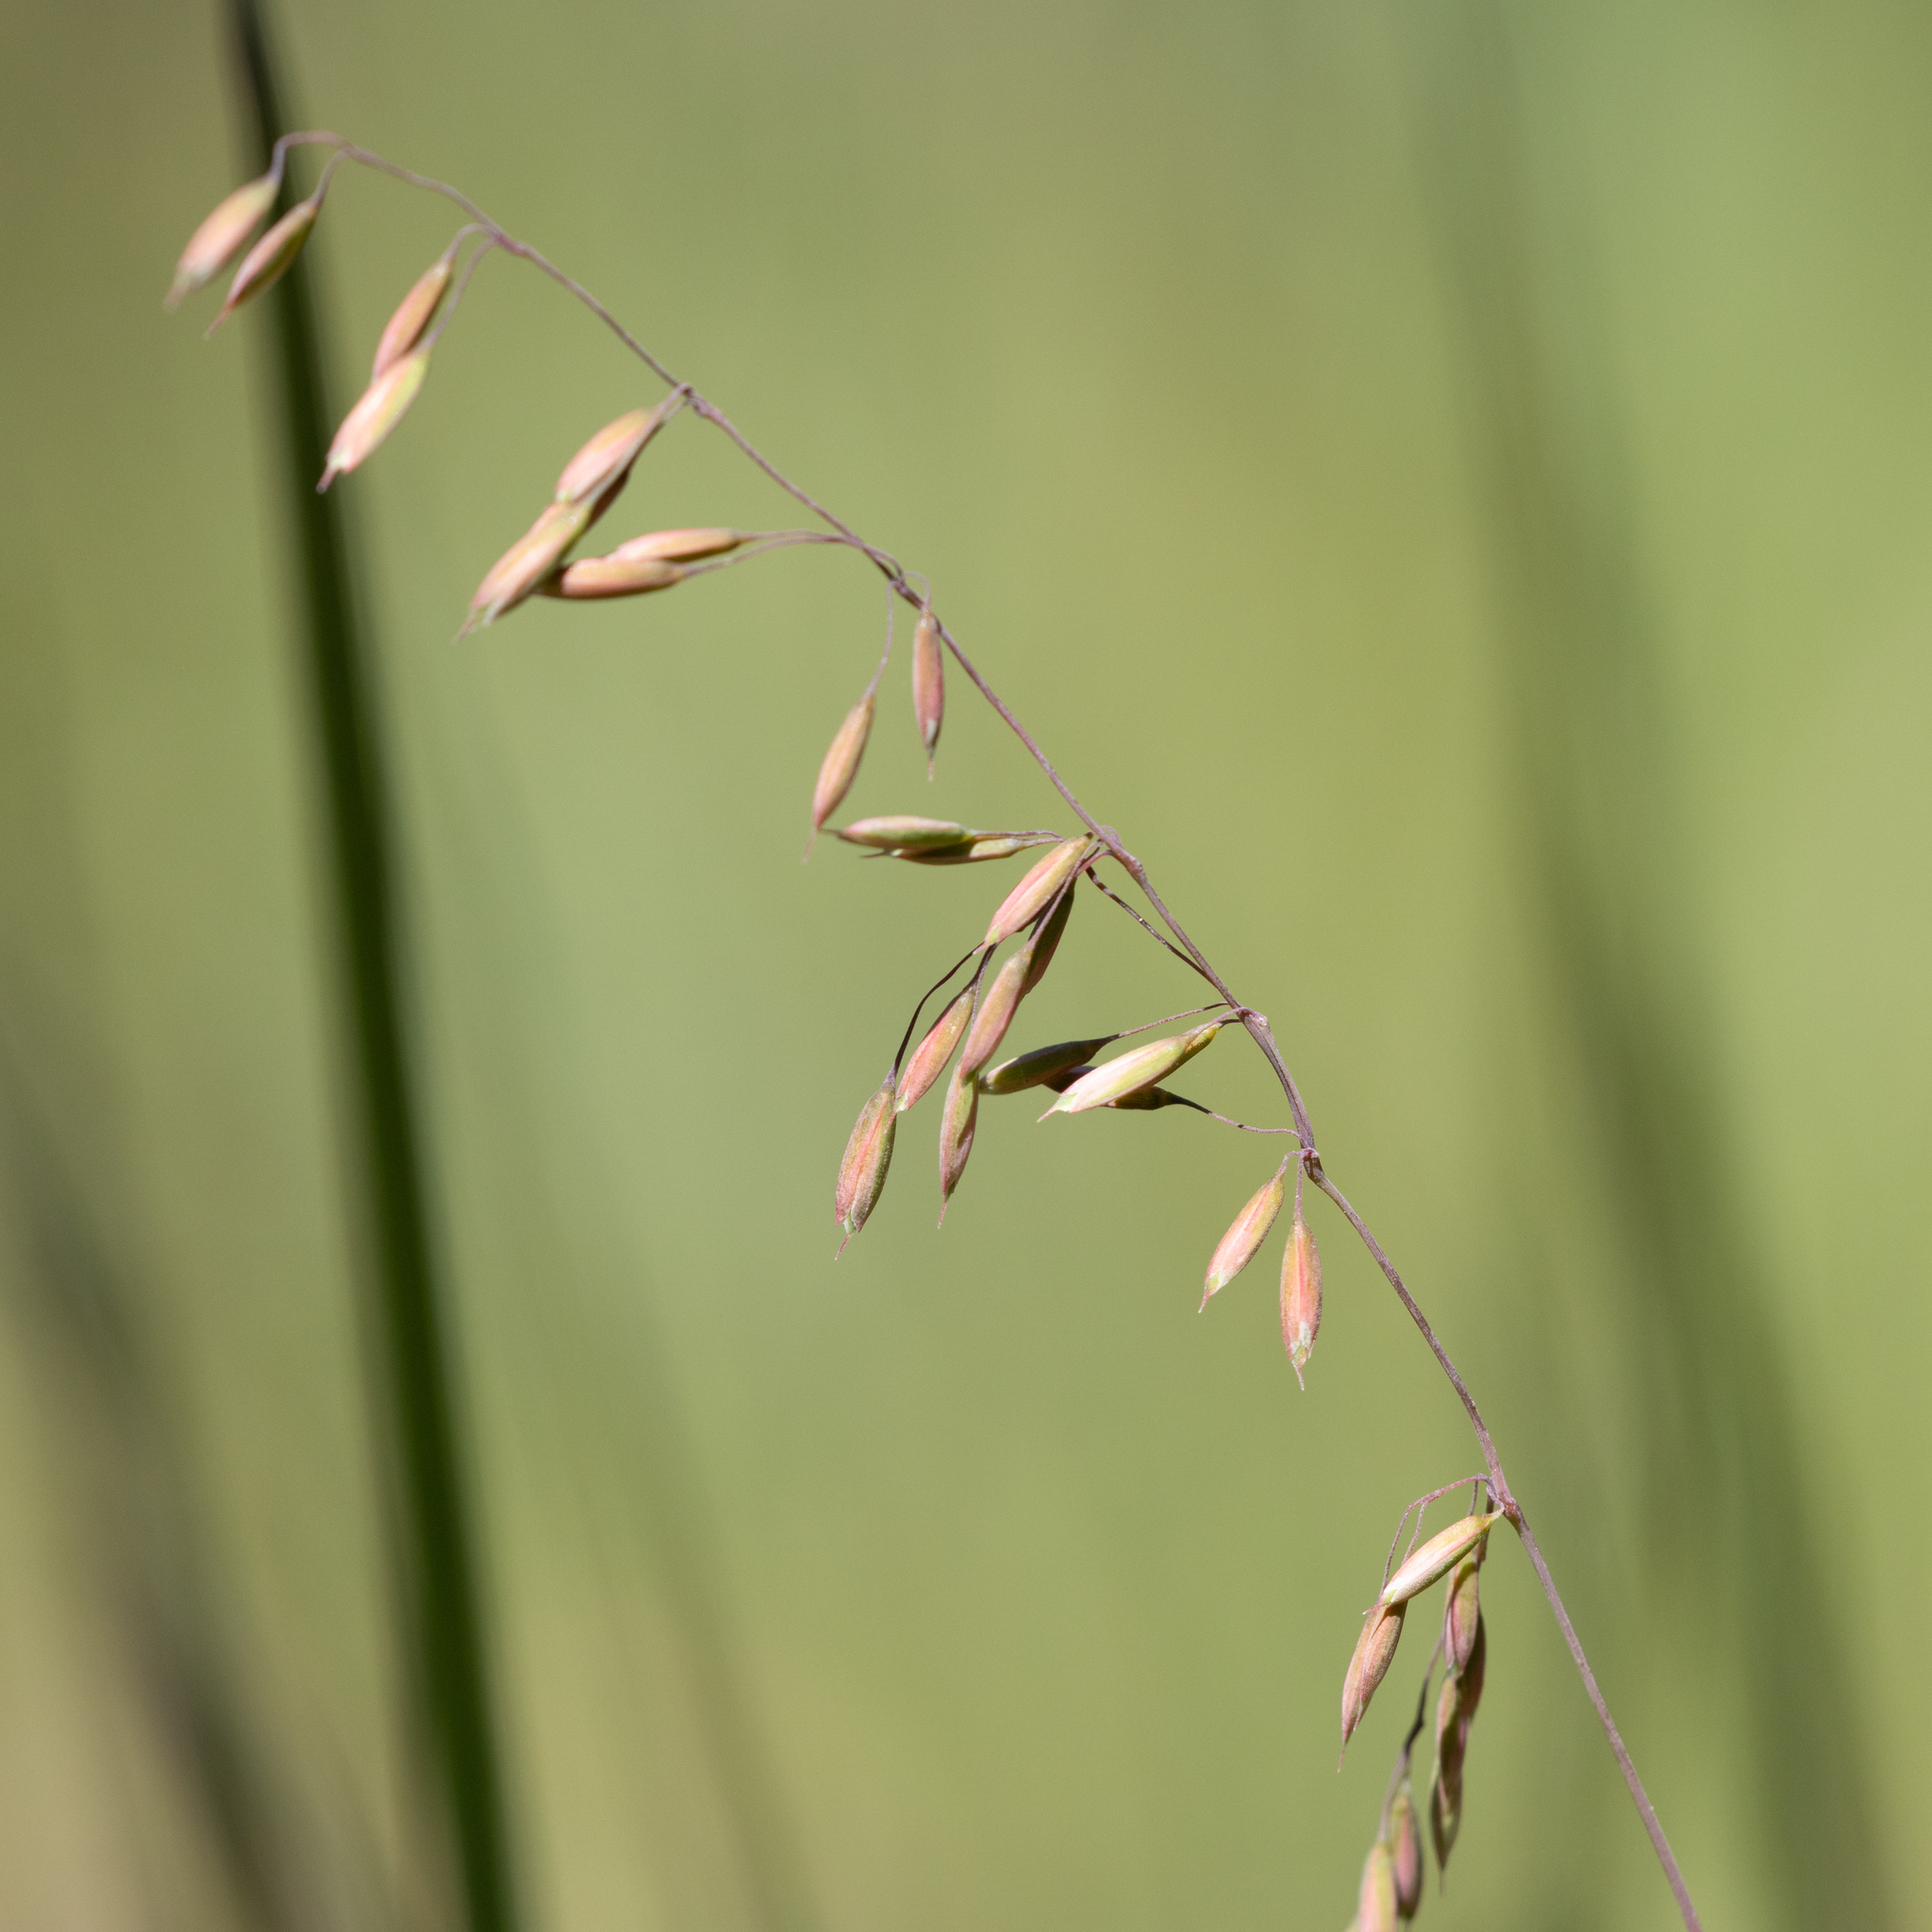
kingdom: Plantae
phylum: Tracheophyta
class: Liliopsida
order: Poales
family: Poaceae
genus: Ehrharta
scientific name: Ehrharta calycina
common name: Perennial veldtgrass
